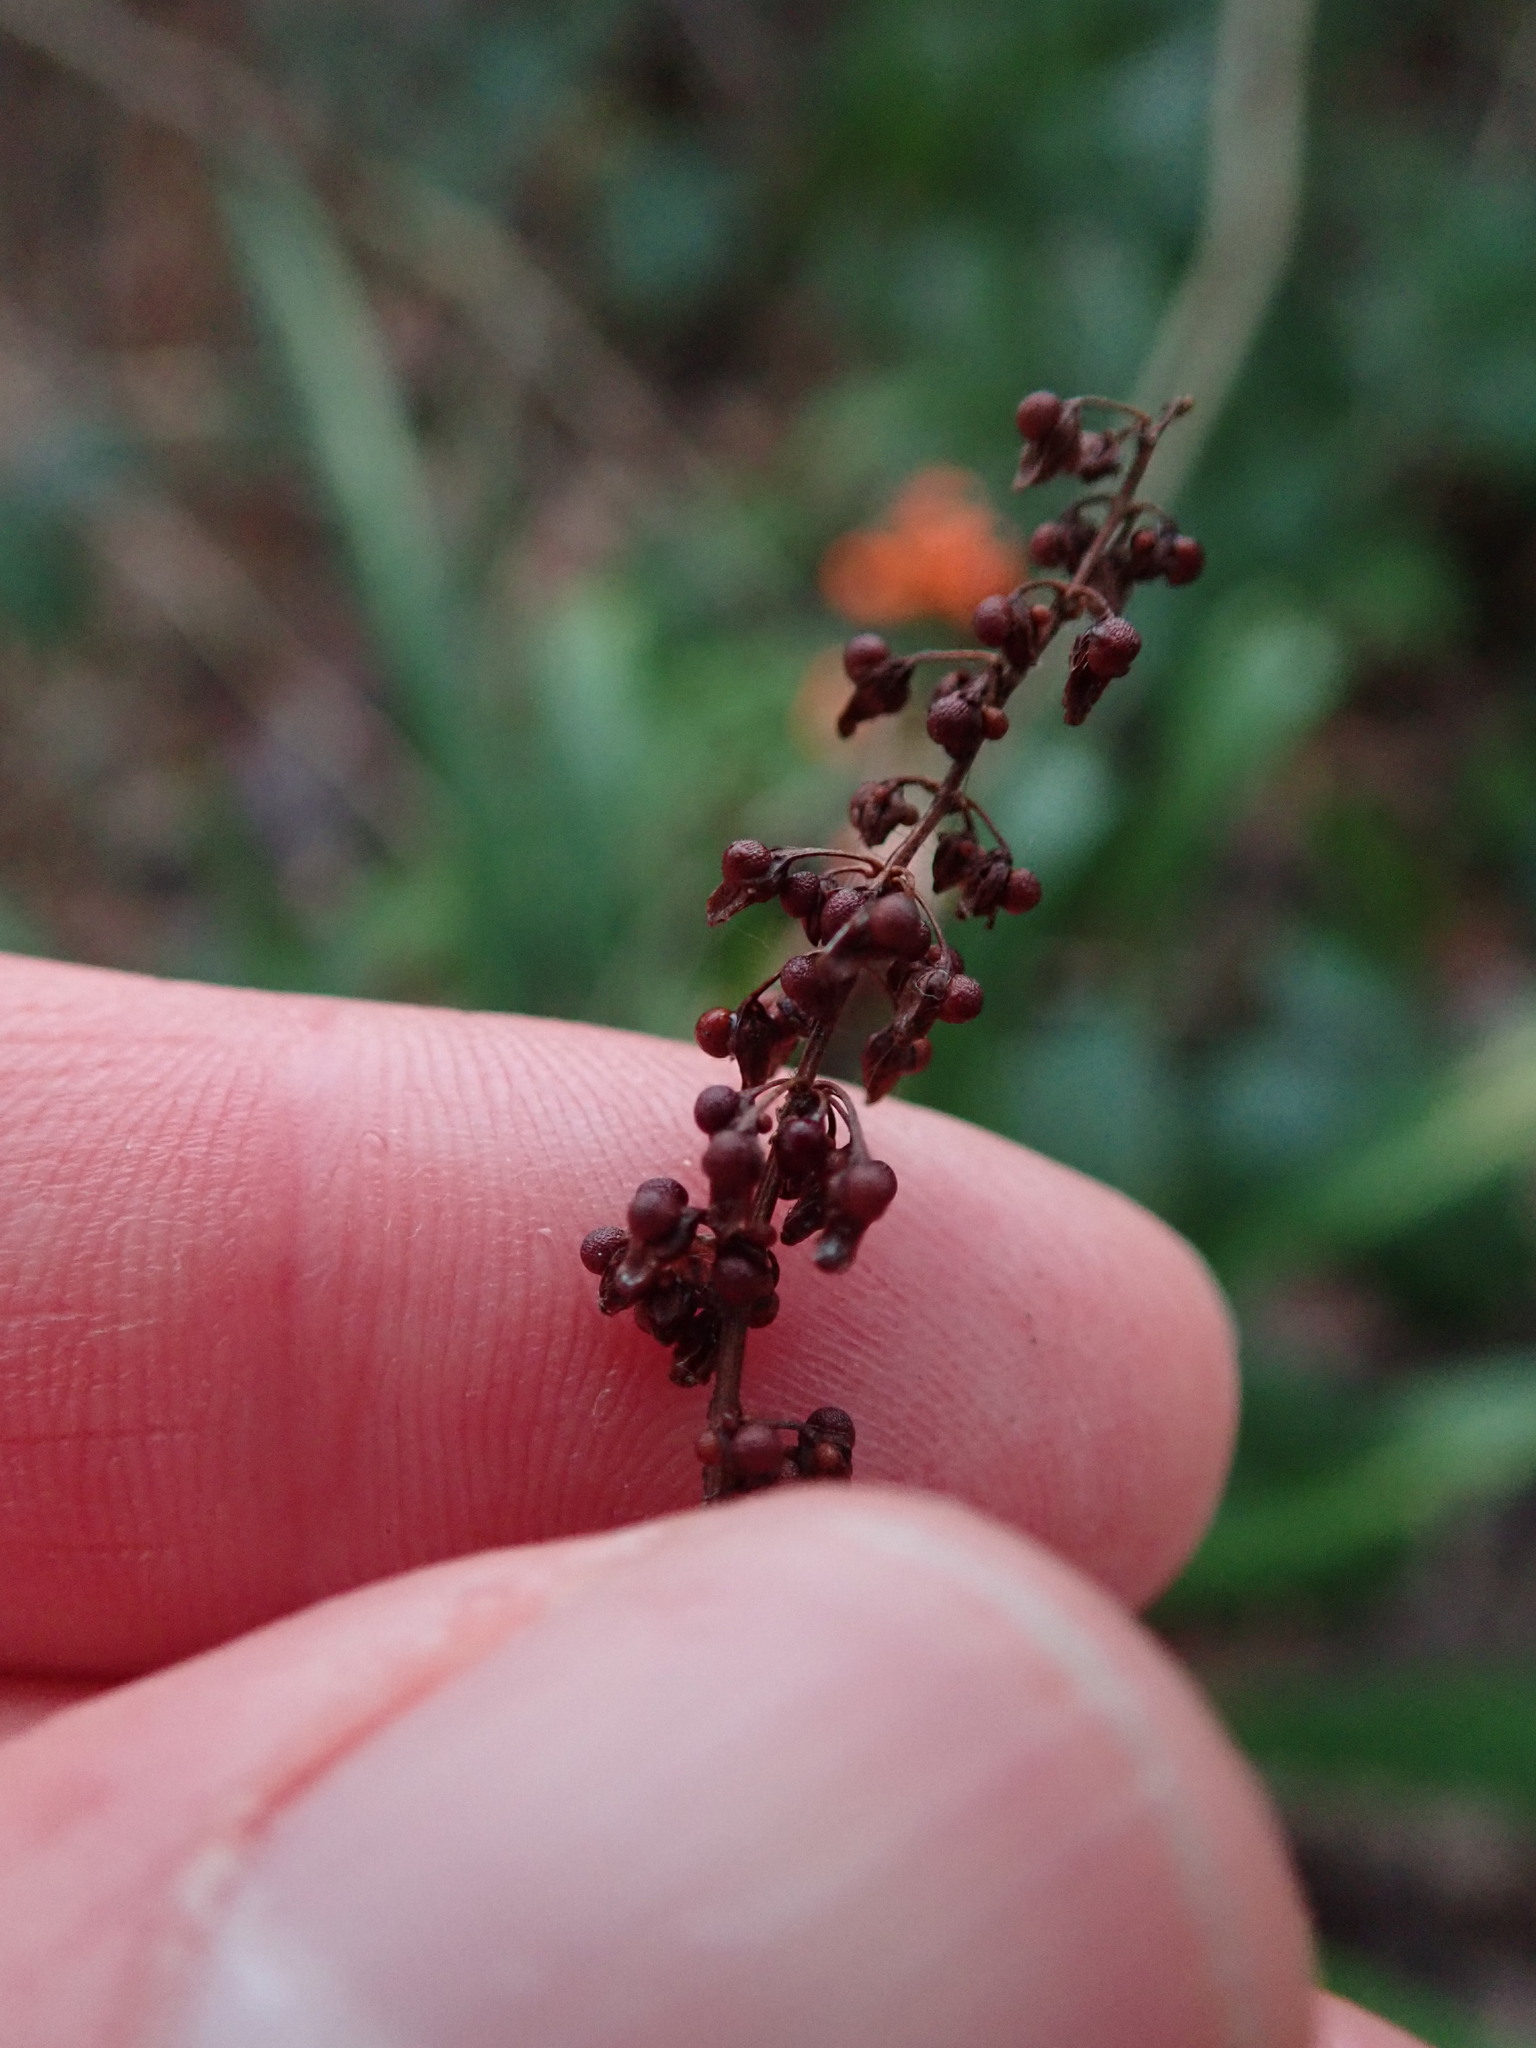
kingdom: Plantae
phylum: Tracheophyta
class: Magnoliopsida
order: Caryophyllales
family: Polygonaceae
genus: Rumex
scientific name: Rumex sanguineus
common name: Wood dock
